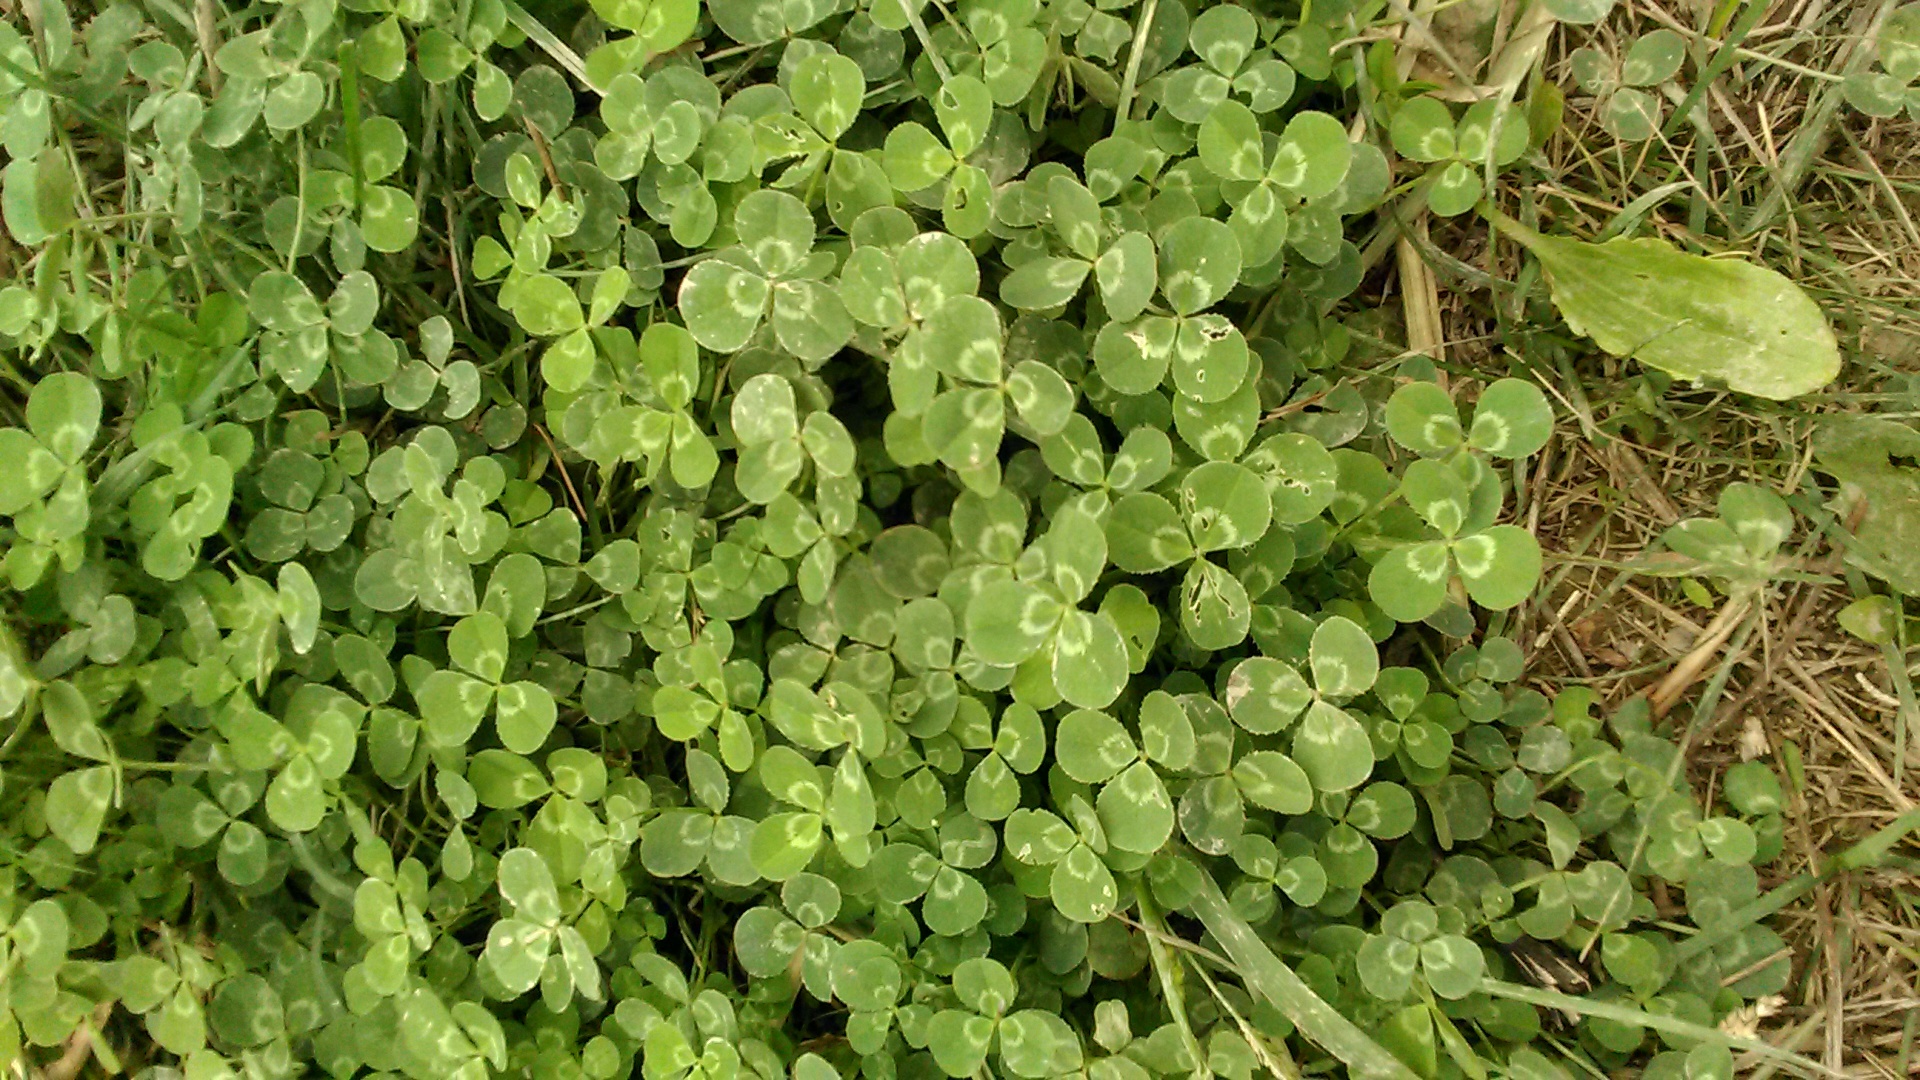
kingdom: Plantae
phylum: Tracheophyta
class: Magnoliopsida
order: Fabales
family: Fabaceae
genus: Trifolium
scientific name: Trifolium repens
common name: White clover
